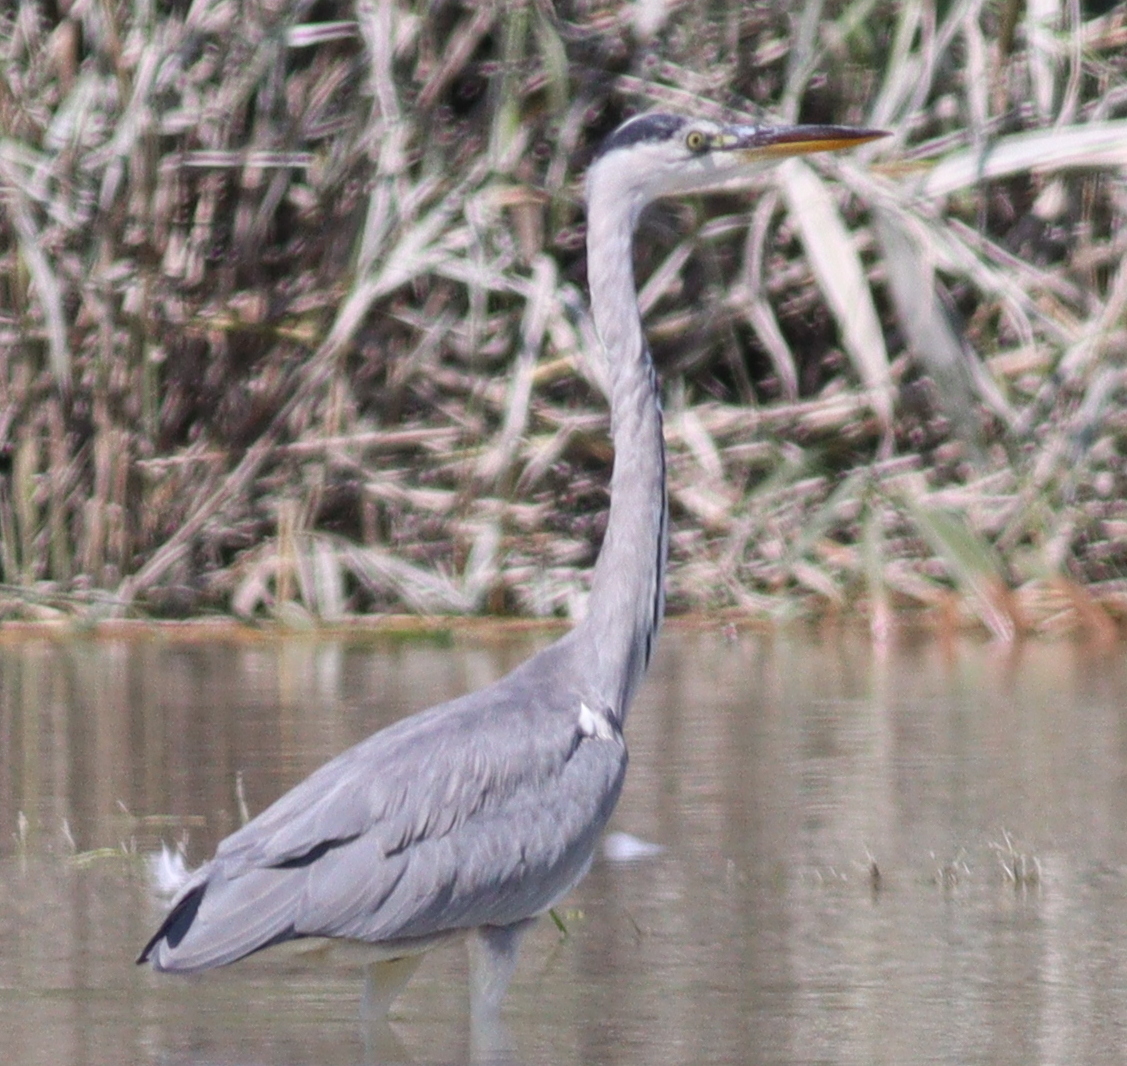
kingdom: Animalia
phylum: Chordata
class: Aves
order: Pelecaniformes
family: Ardeidae
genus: Ardea
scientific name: Ardea cinerea
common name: Grey heron
